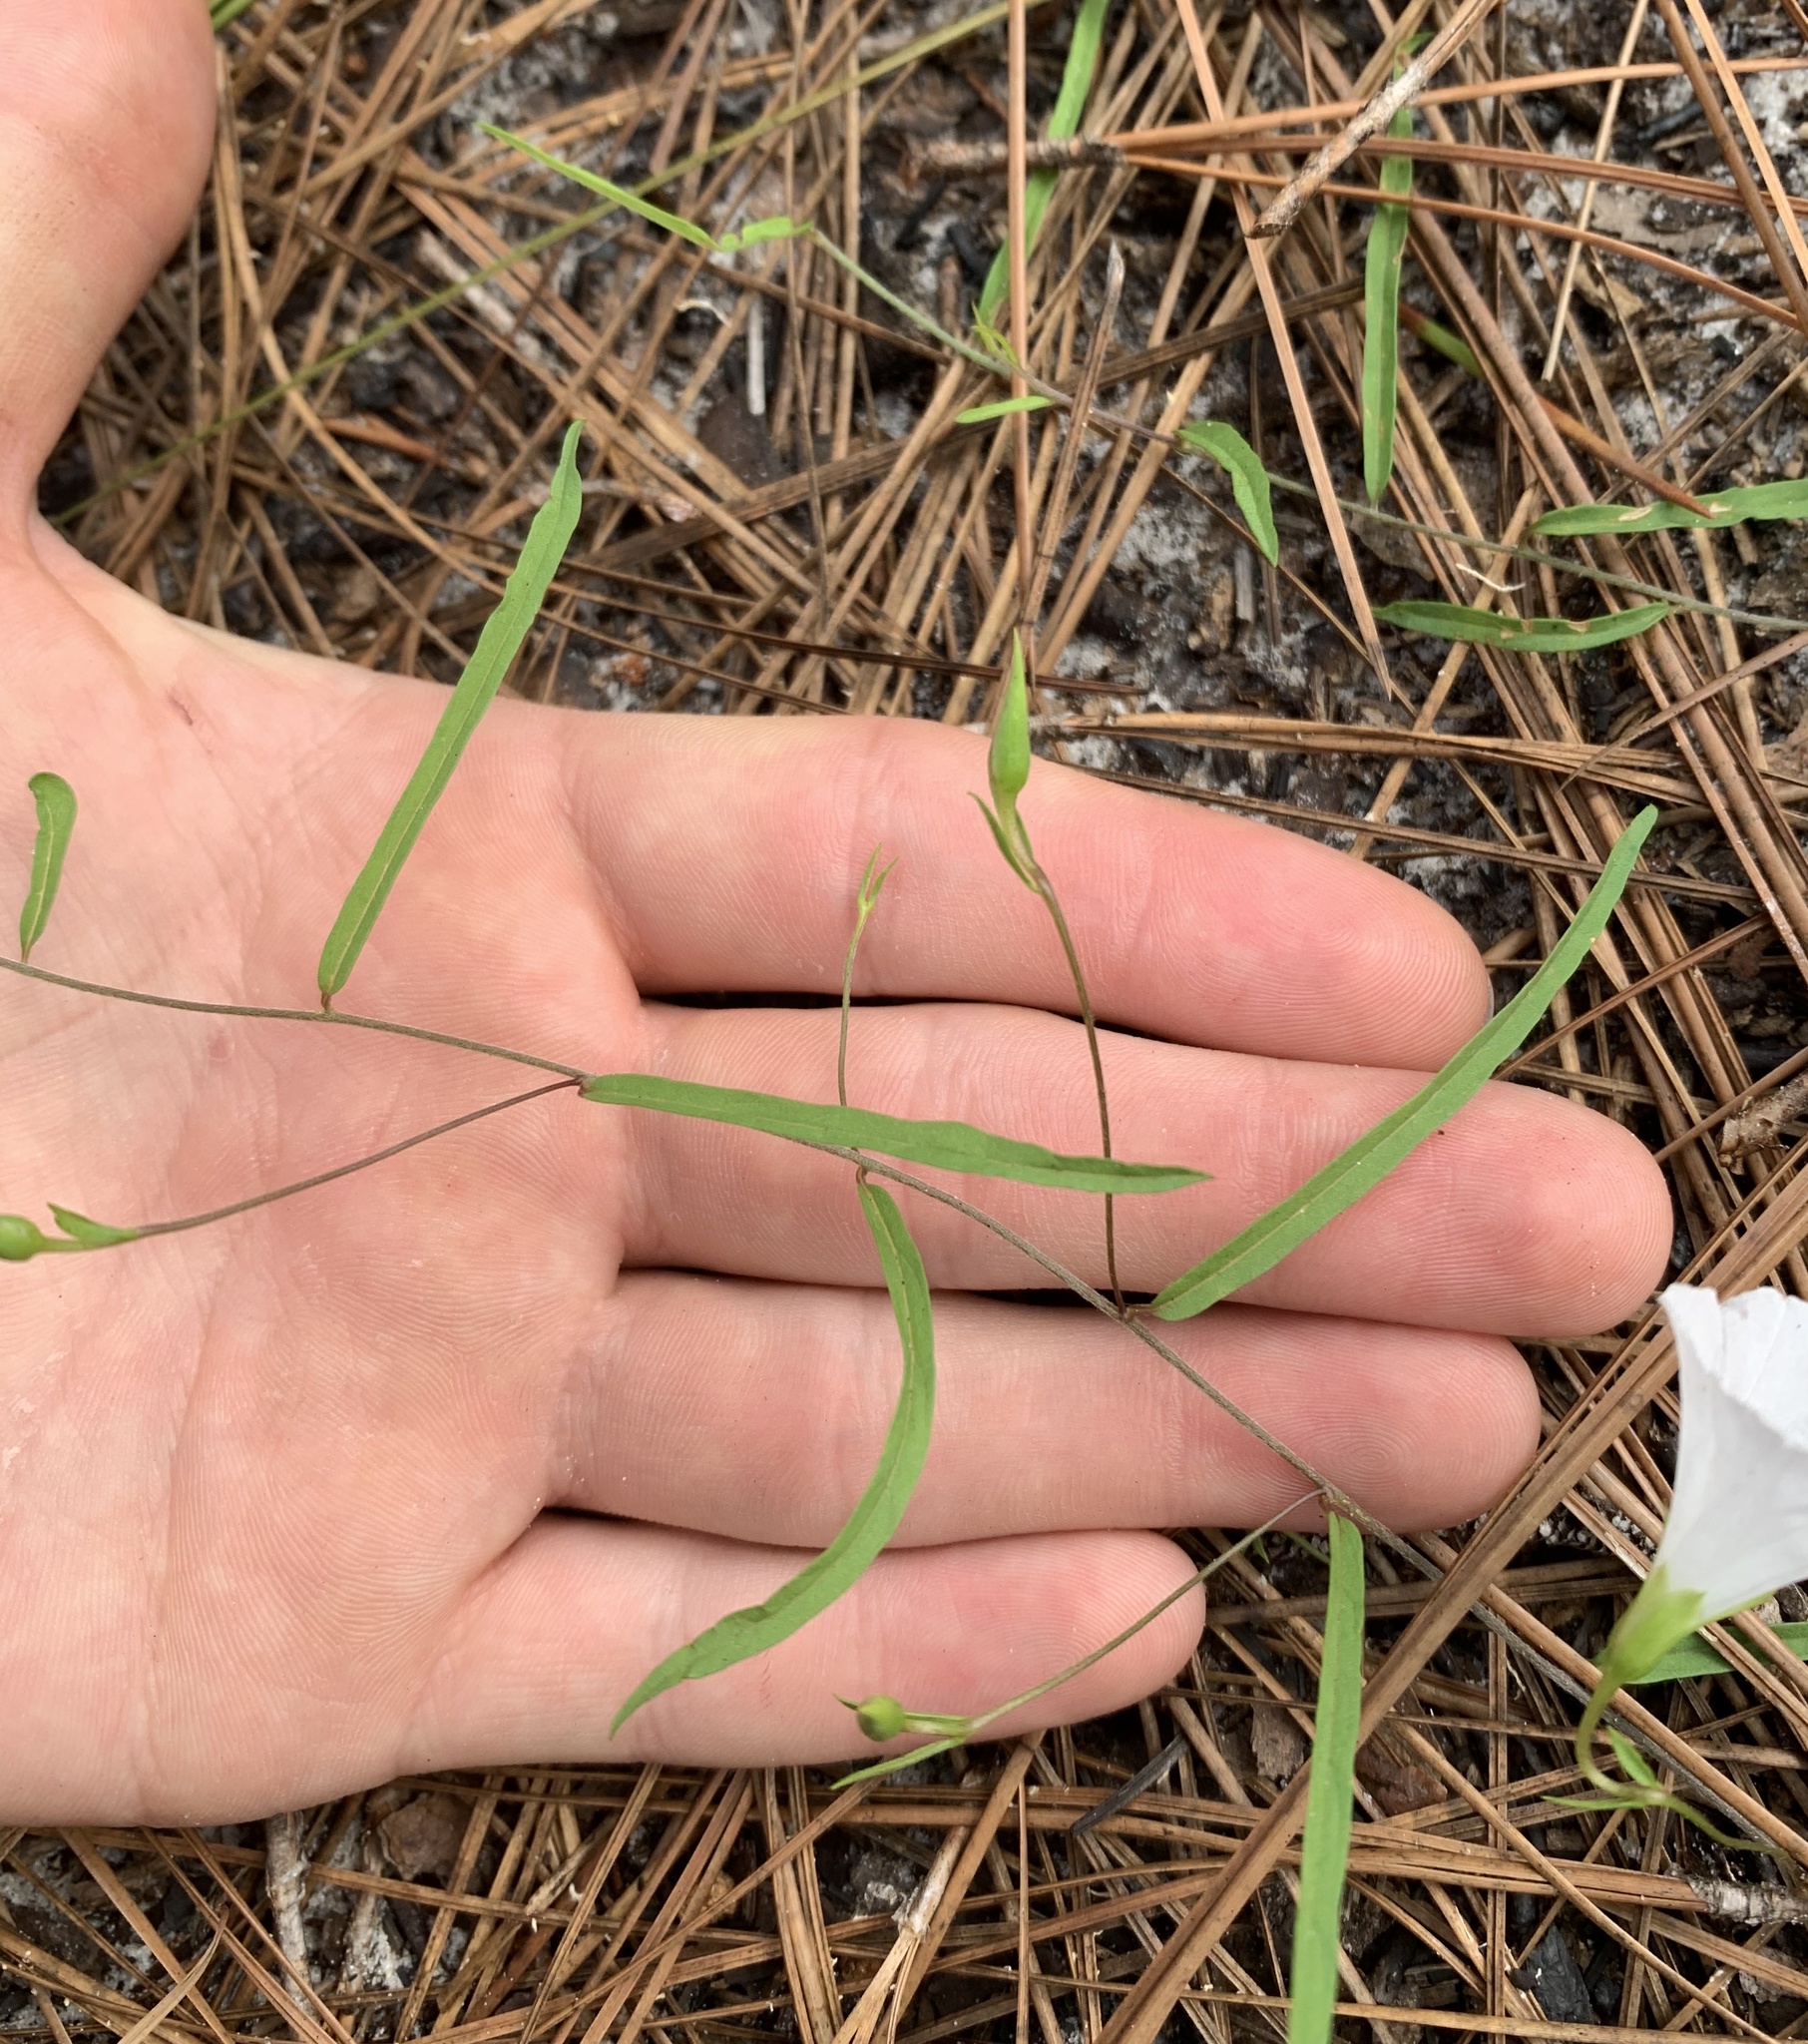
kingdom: Plantae
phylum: Tracheophyta
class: Magnoliopsida
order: Solanales
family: Convolvulaceae
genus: Stylisma
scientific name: Stylisma patens
